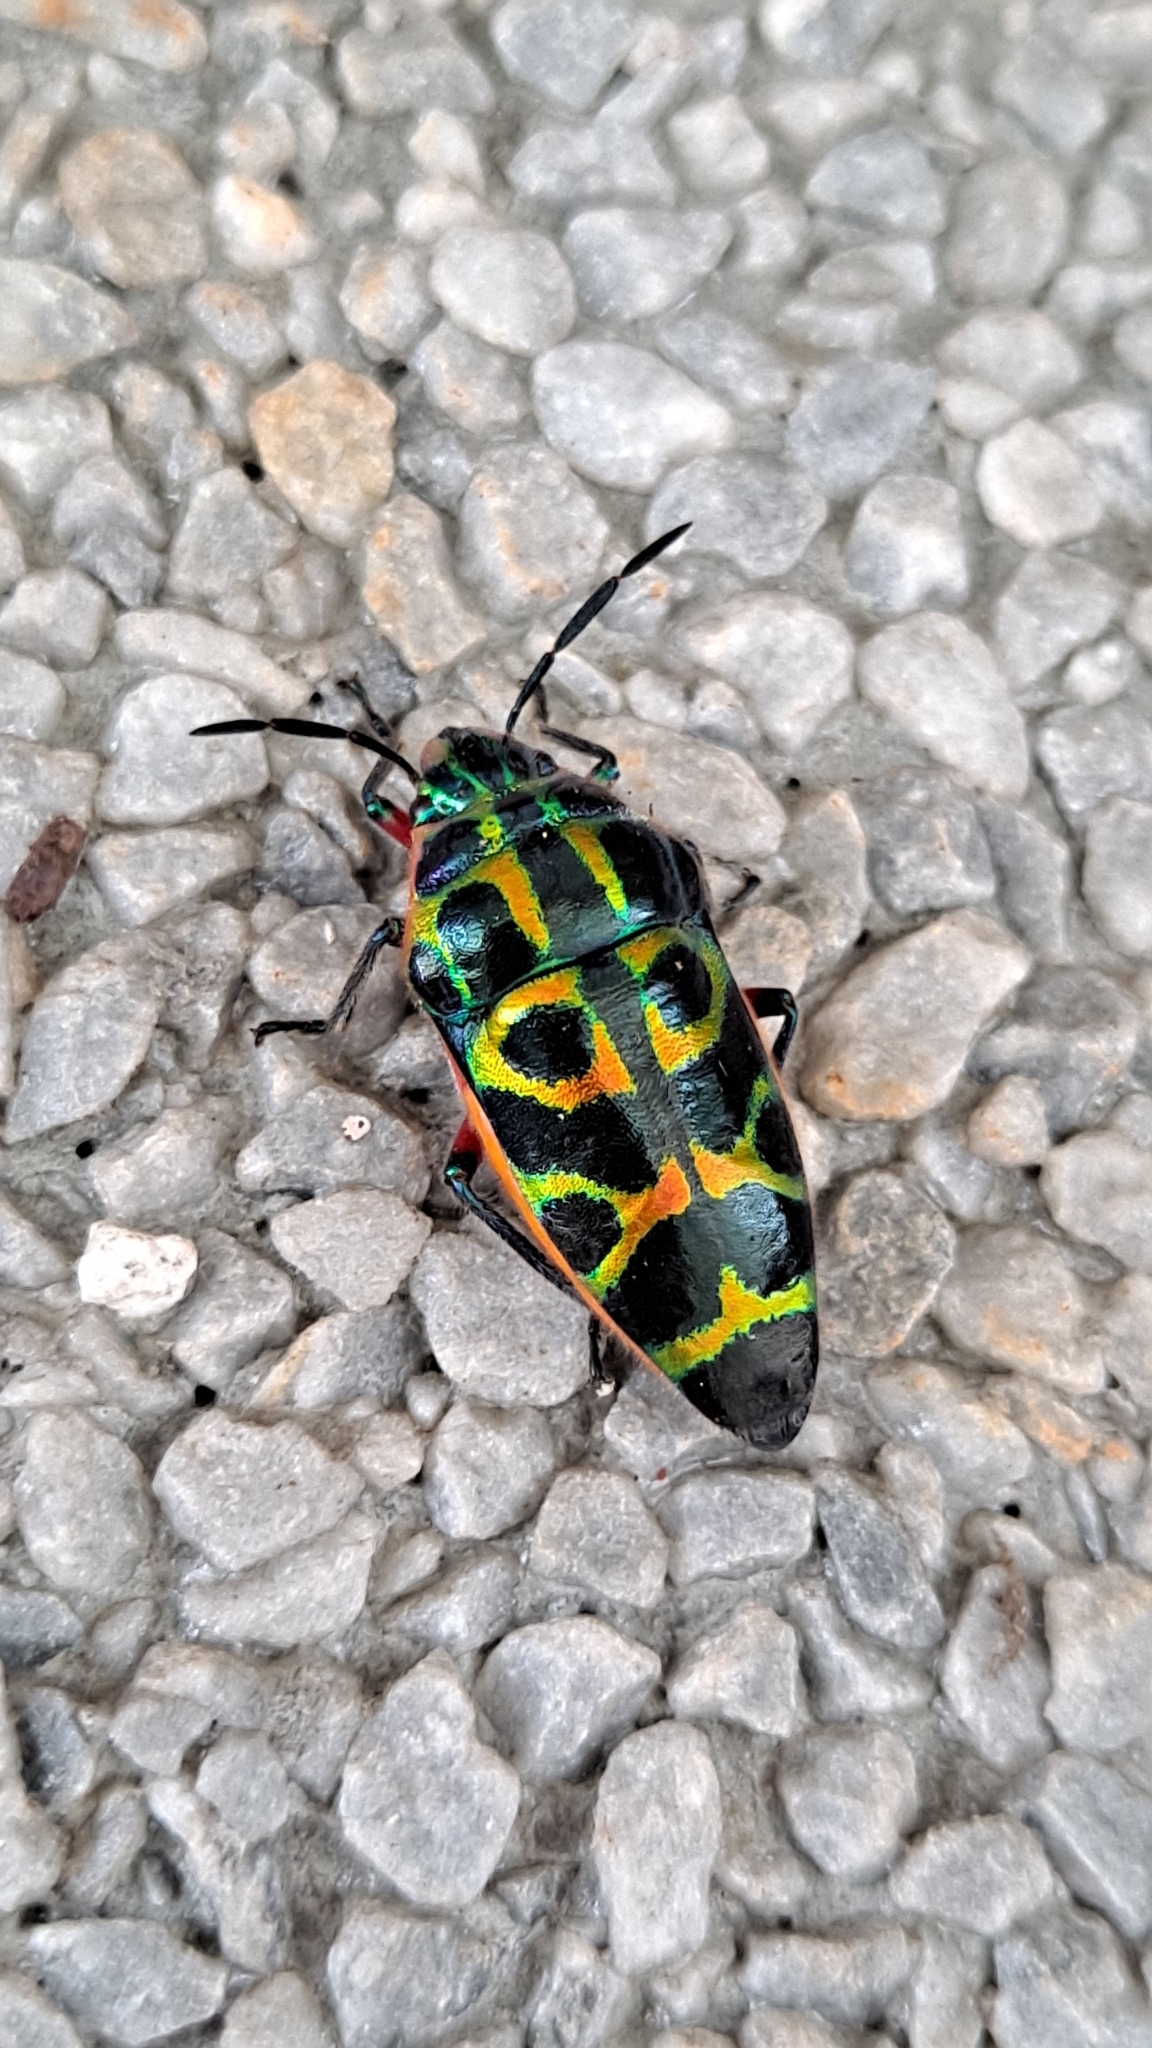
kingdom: Animalia
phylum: Arthropoda
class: Insecta
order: Hemiptera
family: Scutelleridae
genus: Scutellera
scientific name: Scutellera nepalensis
